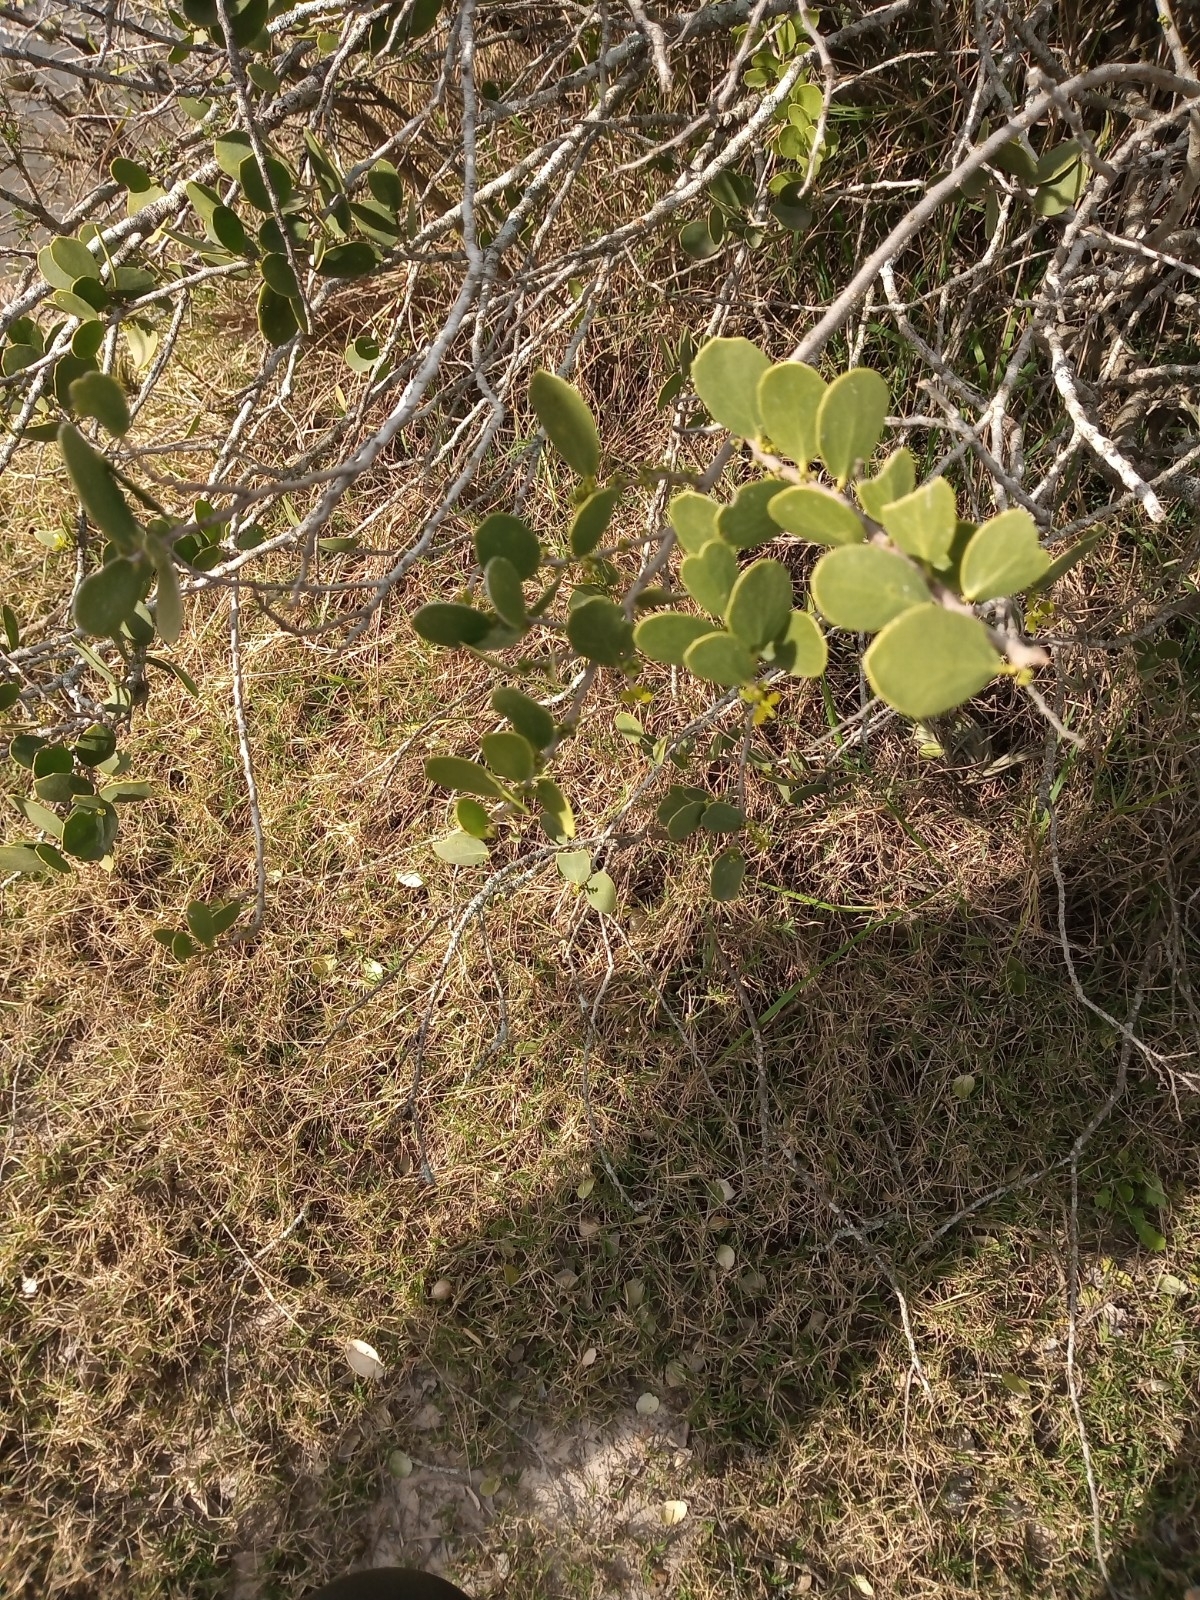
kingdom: Plantae
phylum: Tracheophyta
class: Magnoliopsida
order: Celastrales
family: Celastraceae
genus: Tricerma
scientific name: Tricerma vitis-idaeum
